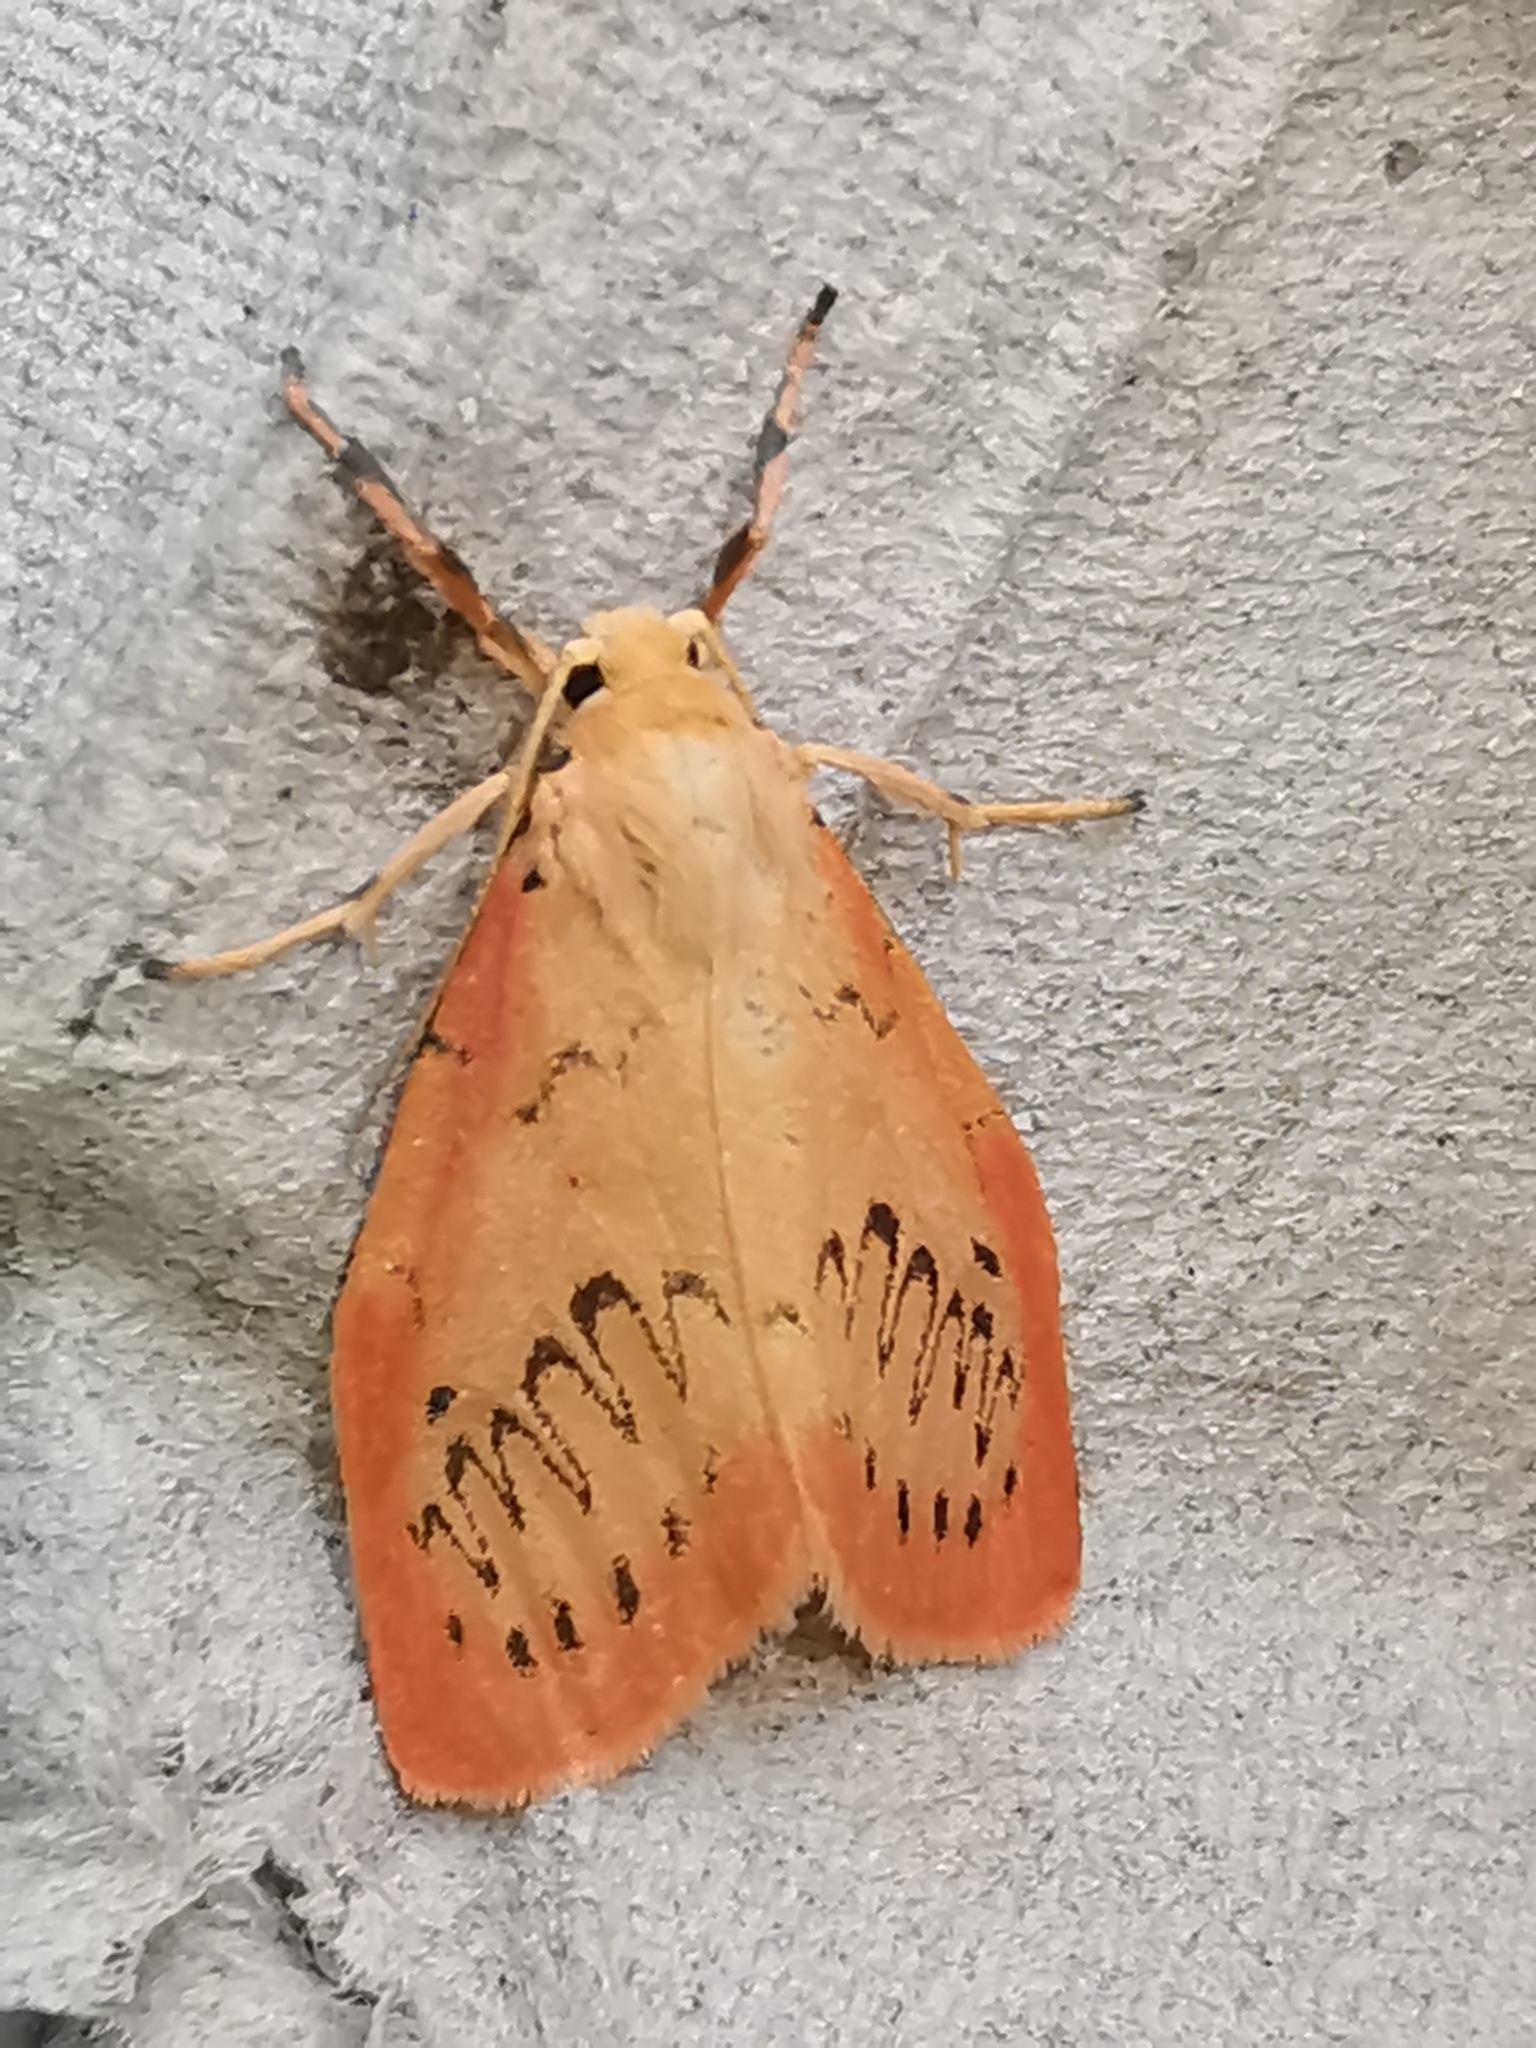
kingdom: Animalia
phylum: Arthropoda
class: Insecta
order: Lepidoptera
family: Erebidae
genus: Miltochrista
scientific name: Miltochrista miniata
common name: Rosy footman
